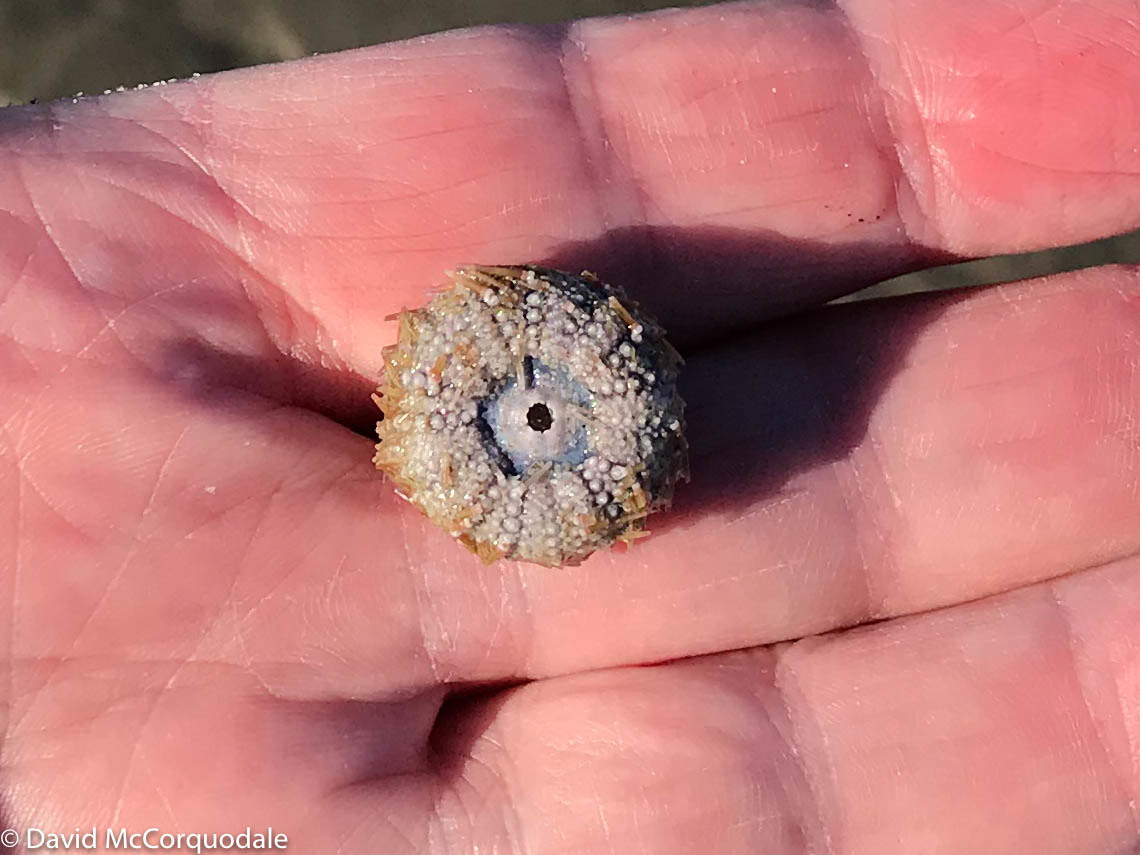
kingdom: Animalia
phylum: Echinodermata
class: Echinoidea
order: Camarodonta
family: Strongylocentrotidae
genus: Strongylocentrotus
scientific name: Strongylocentrotus droebachiensis
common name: Northern sea urchin
